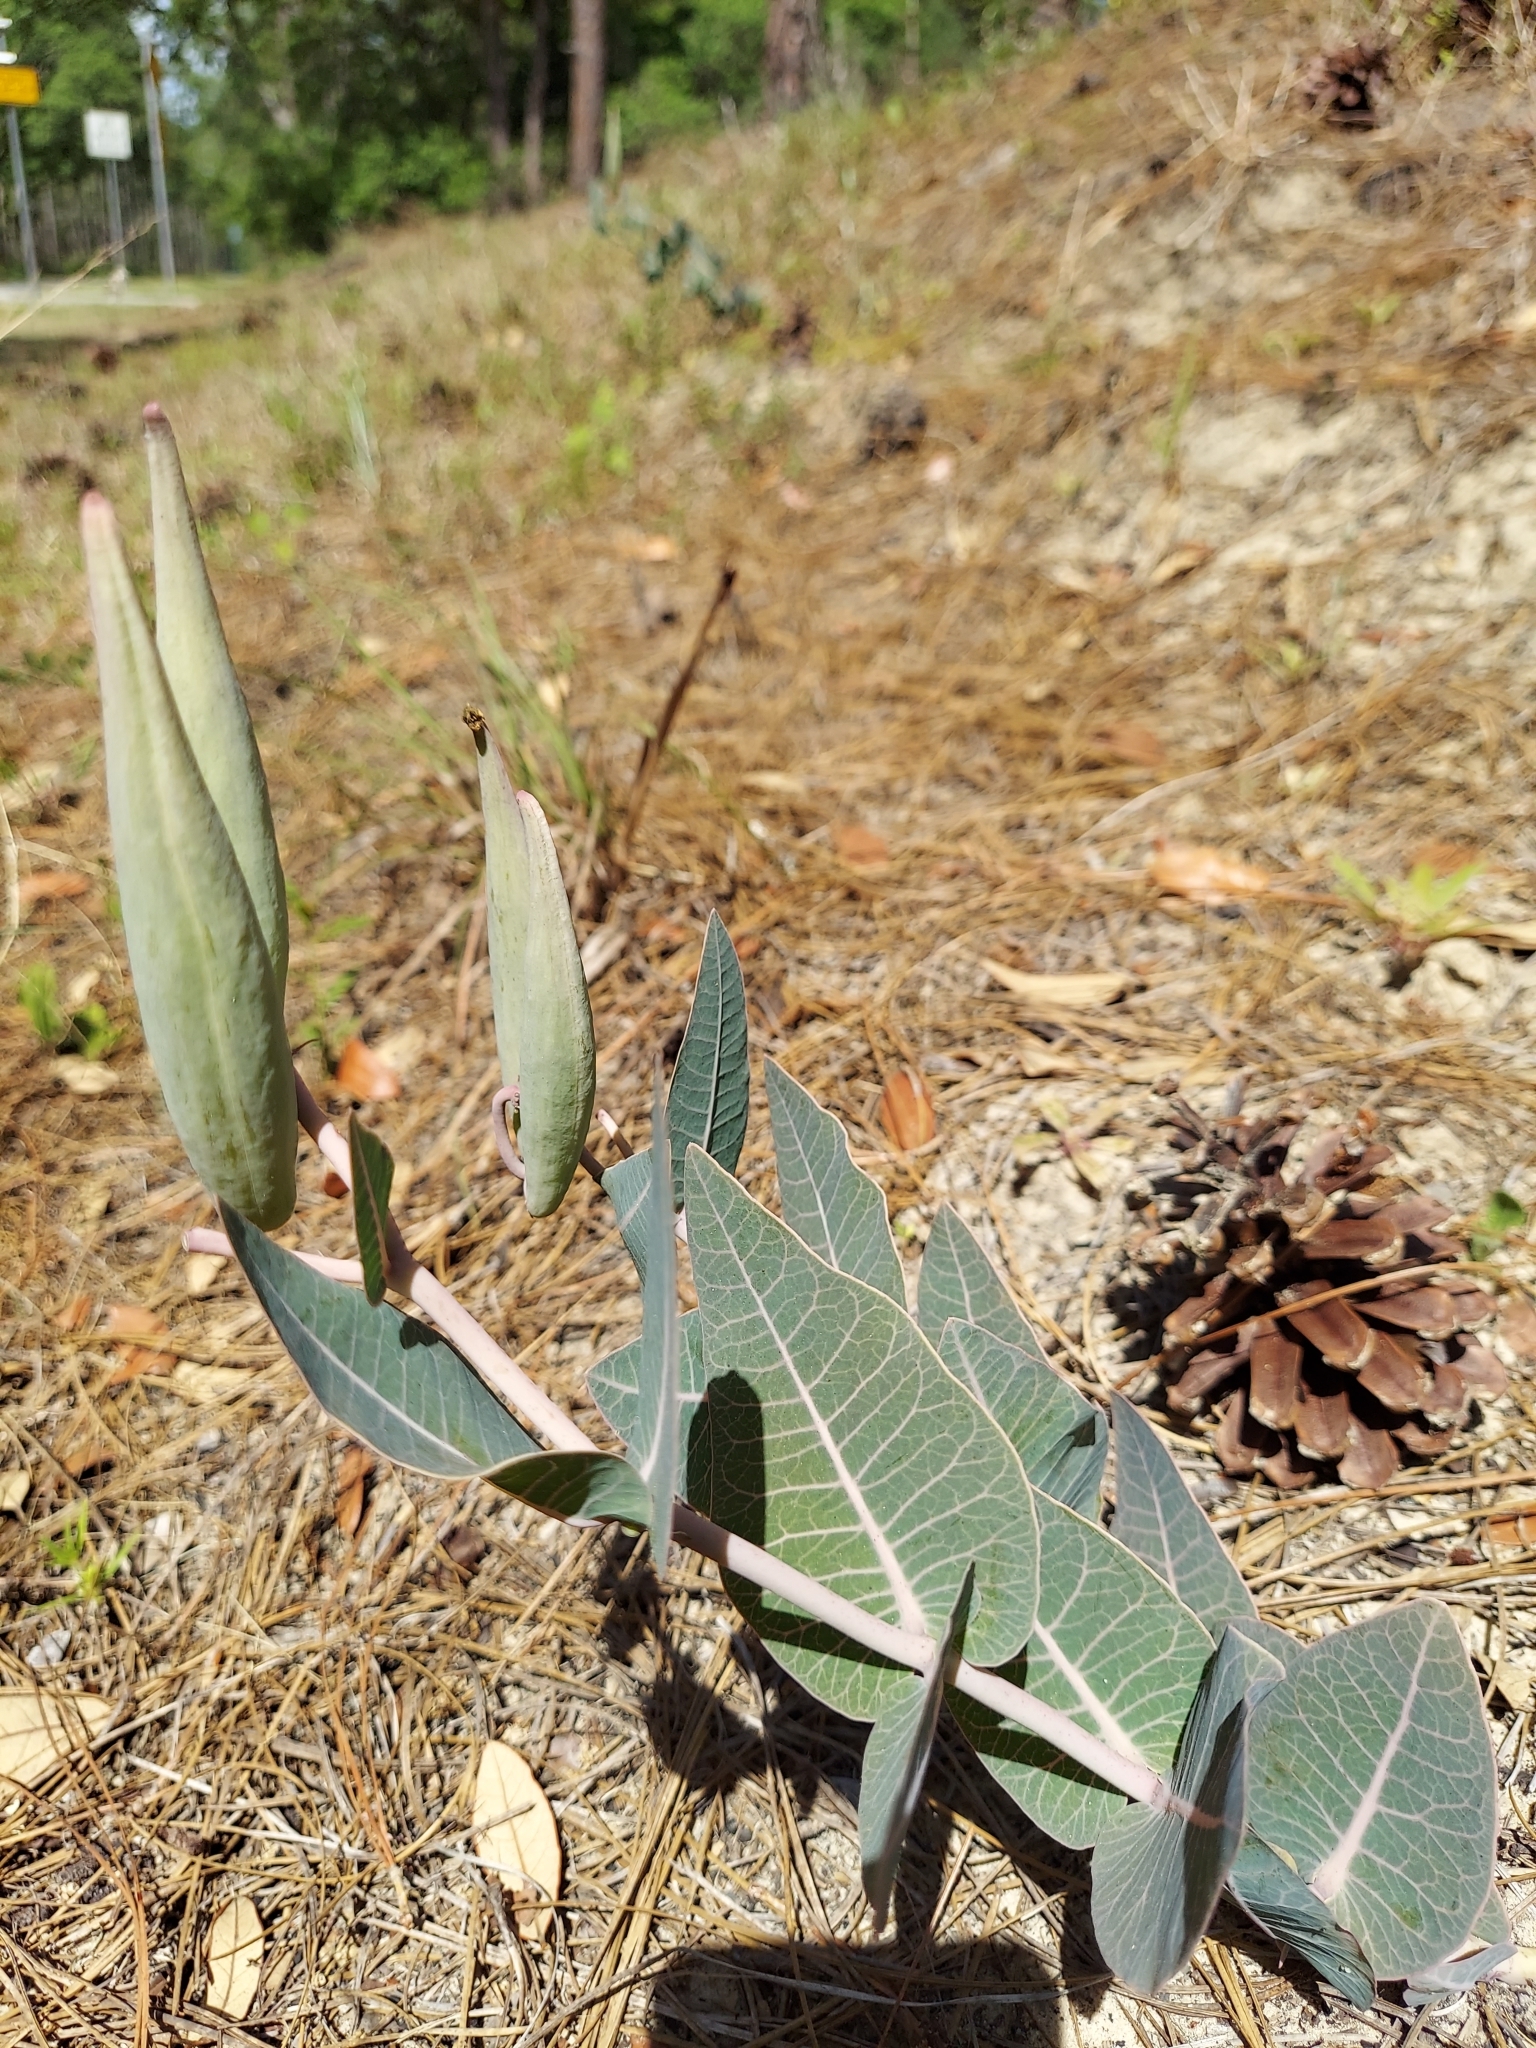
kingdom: Plantae
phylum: Tracheophyta
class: Magnoliopsida
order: Gentianales
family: Apocynaceae
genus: Asclepias
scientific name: Asclepias humistrata
